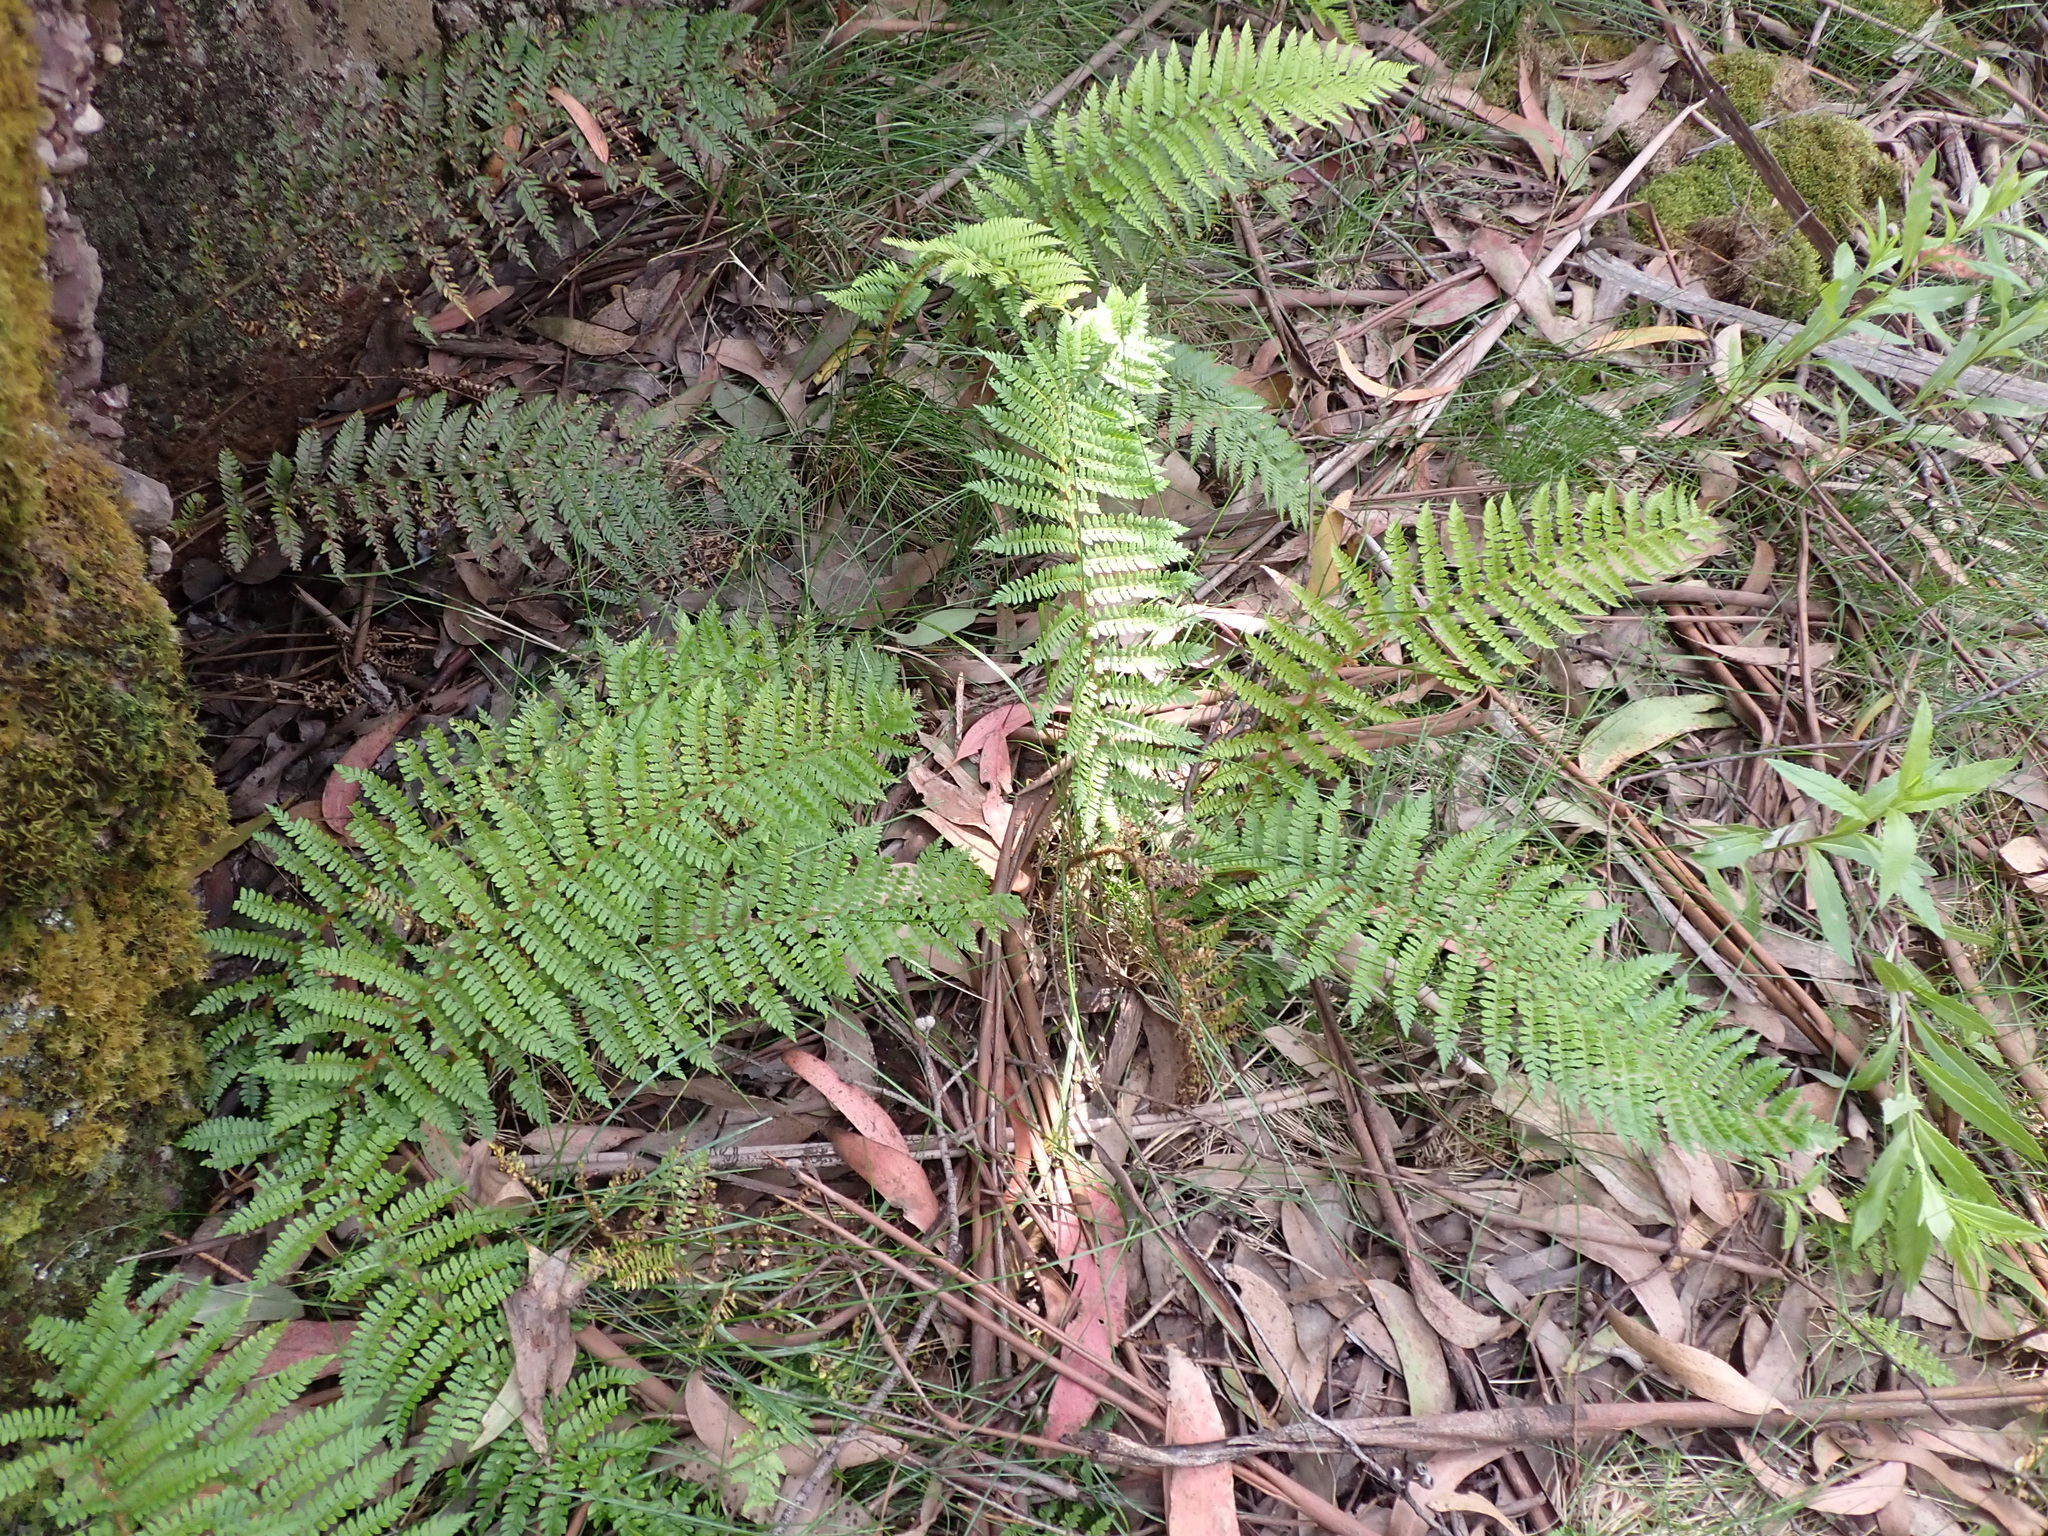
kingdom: Plantae
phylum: Tracheophyta
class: Polypodiopsida
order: Polypodiales
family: Dryopteridaceae
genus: Polystichum
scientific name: Polystichum proliferum
